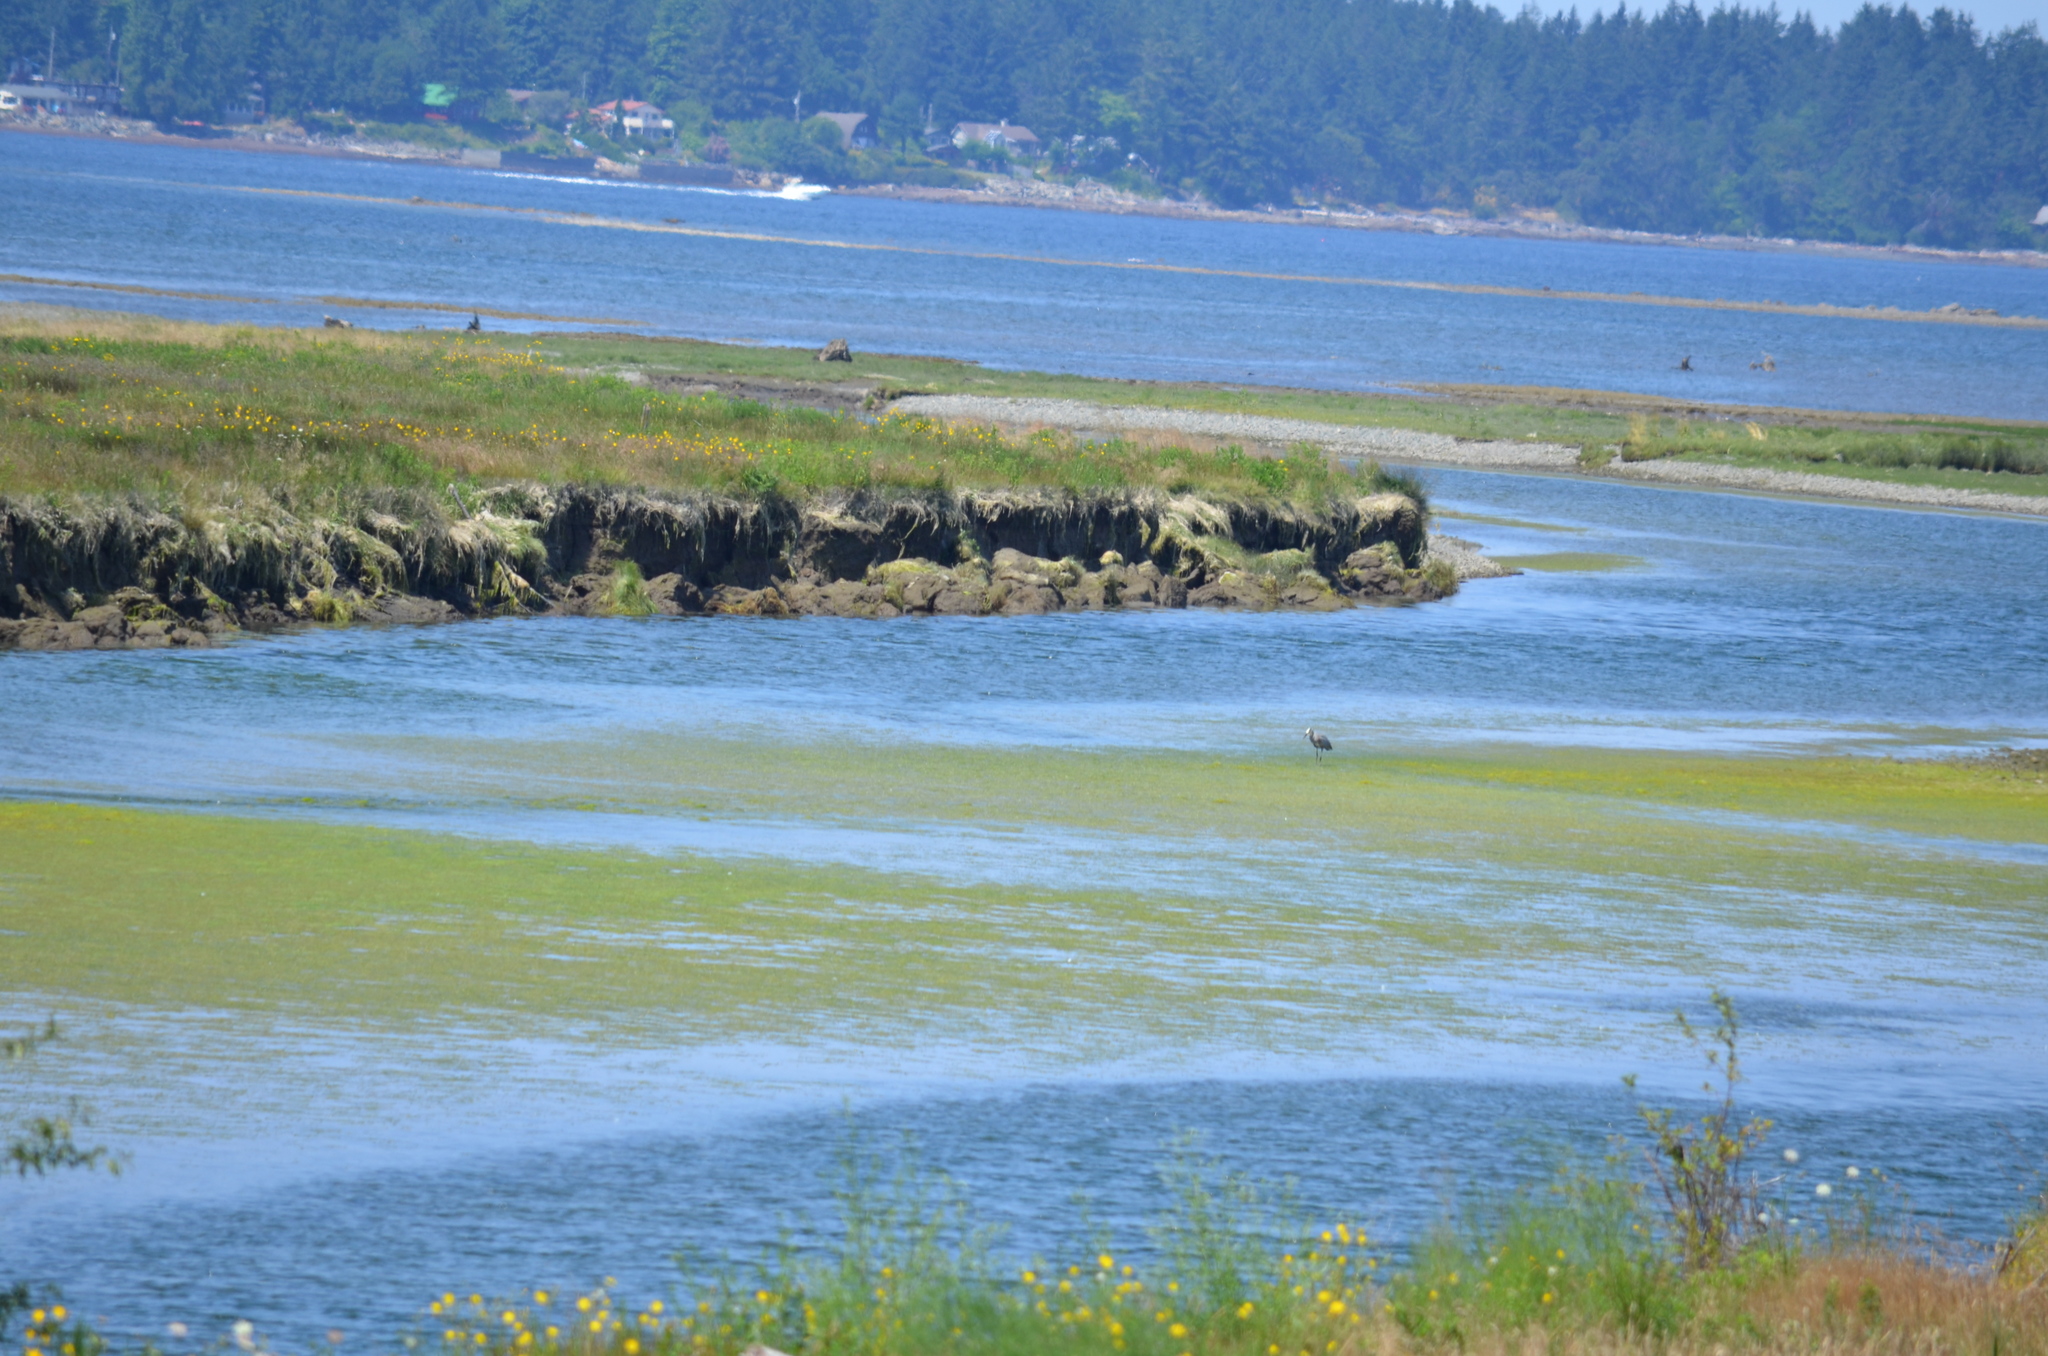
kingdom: Animalia
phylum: Chordata
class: Aves
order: Pelecaniformes
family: Ardeidae
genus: Ardea
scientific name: Ardea herodias
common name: Great blue heron
